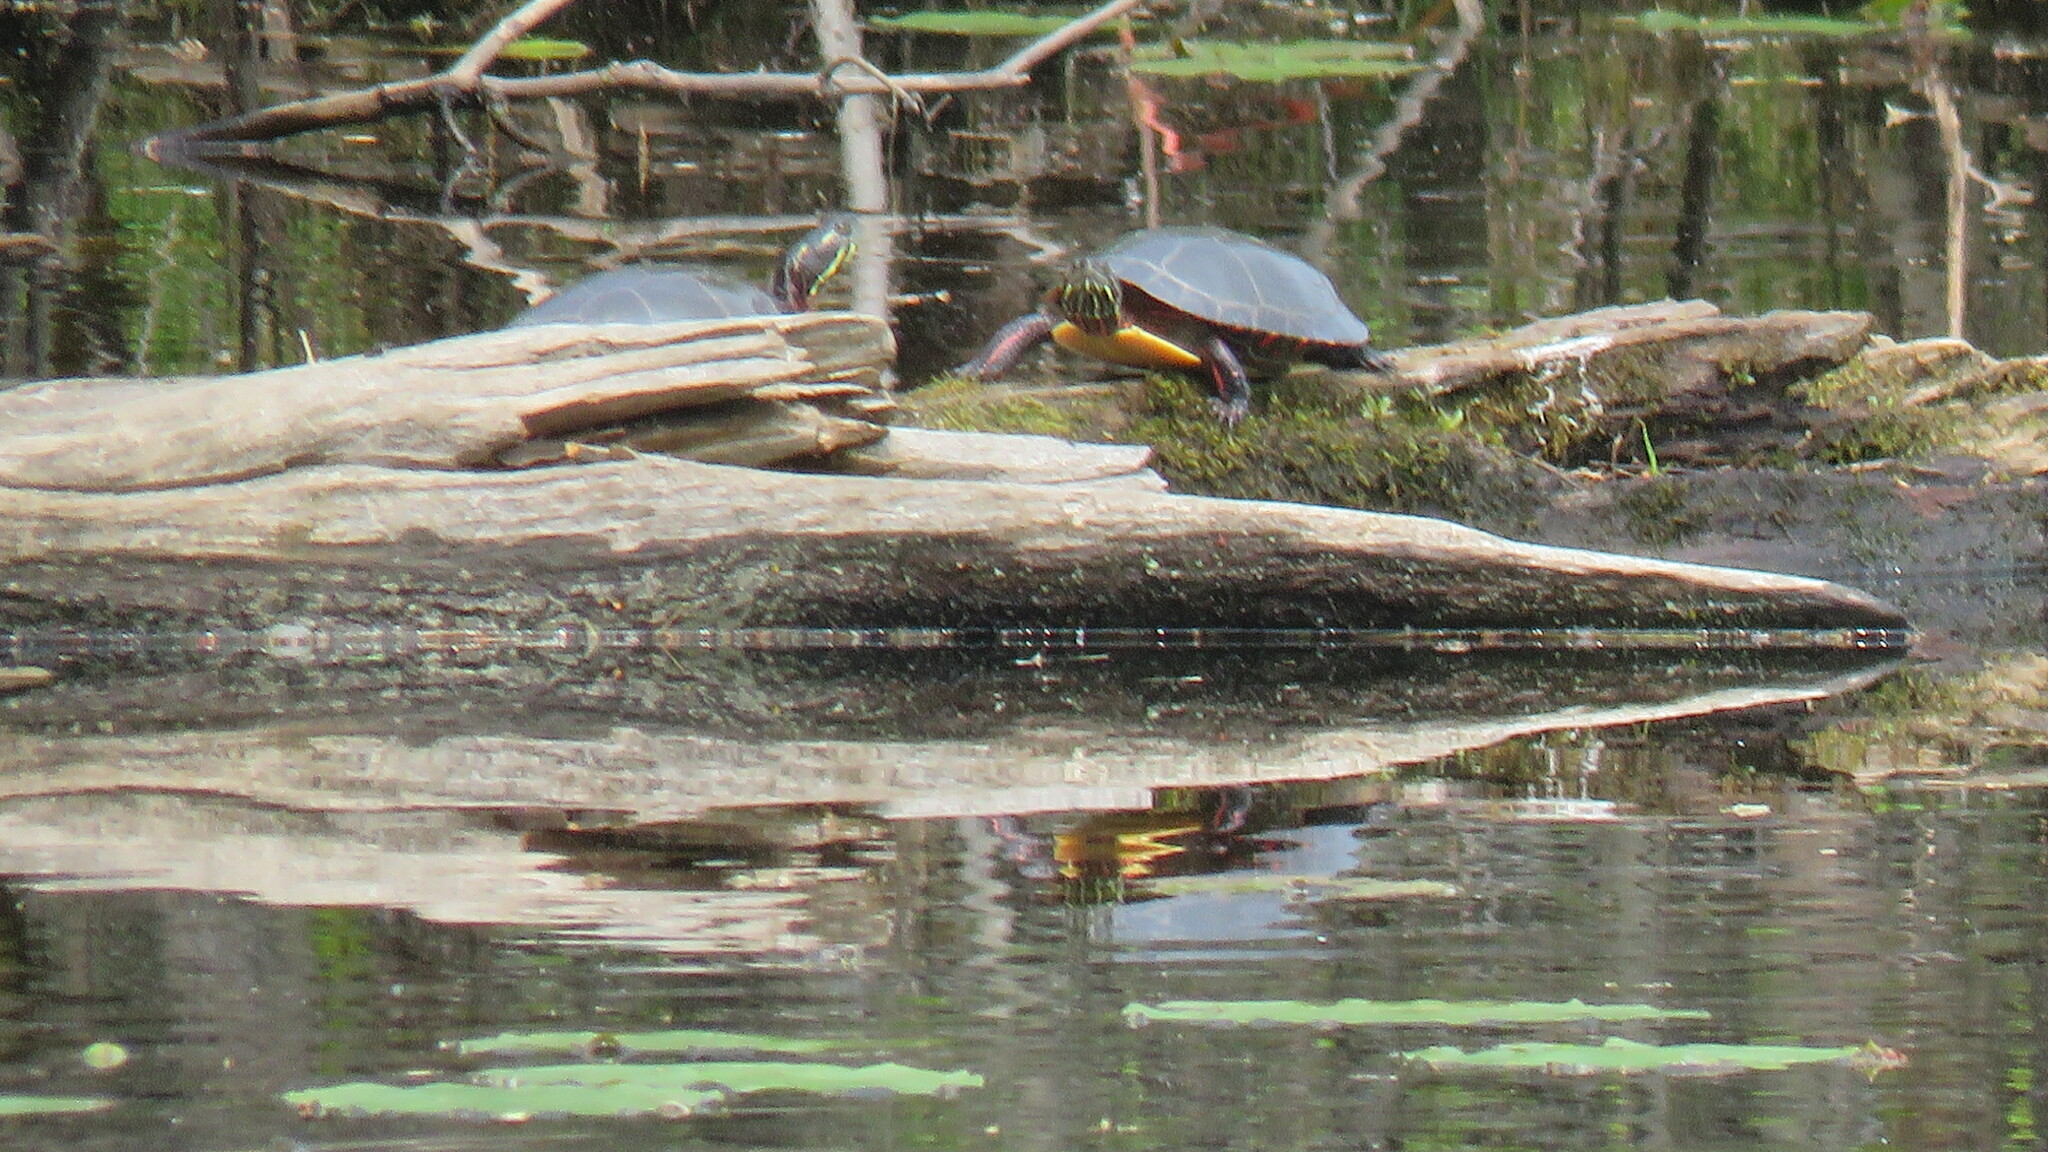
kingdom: Animalia
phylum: Chordata
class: Testudines
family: Emydidae
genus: Chrysemys
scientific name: Chrysemys picta
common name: Painted turtle
